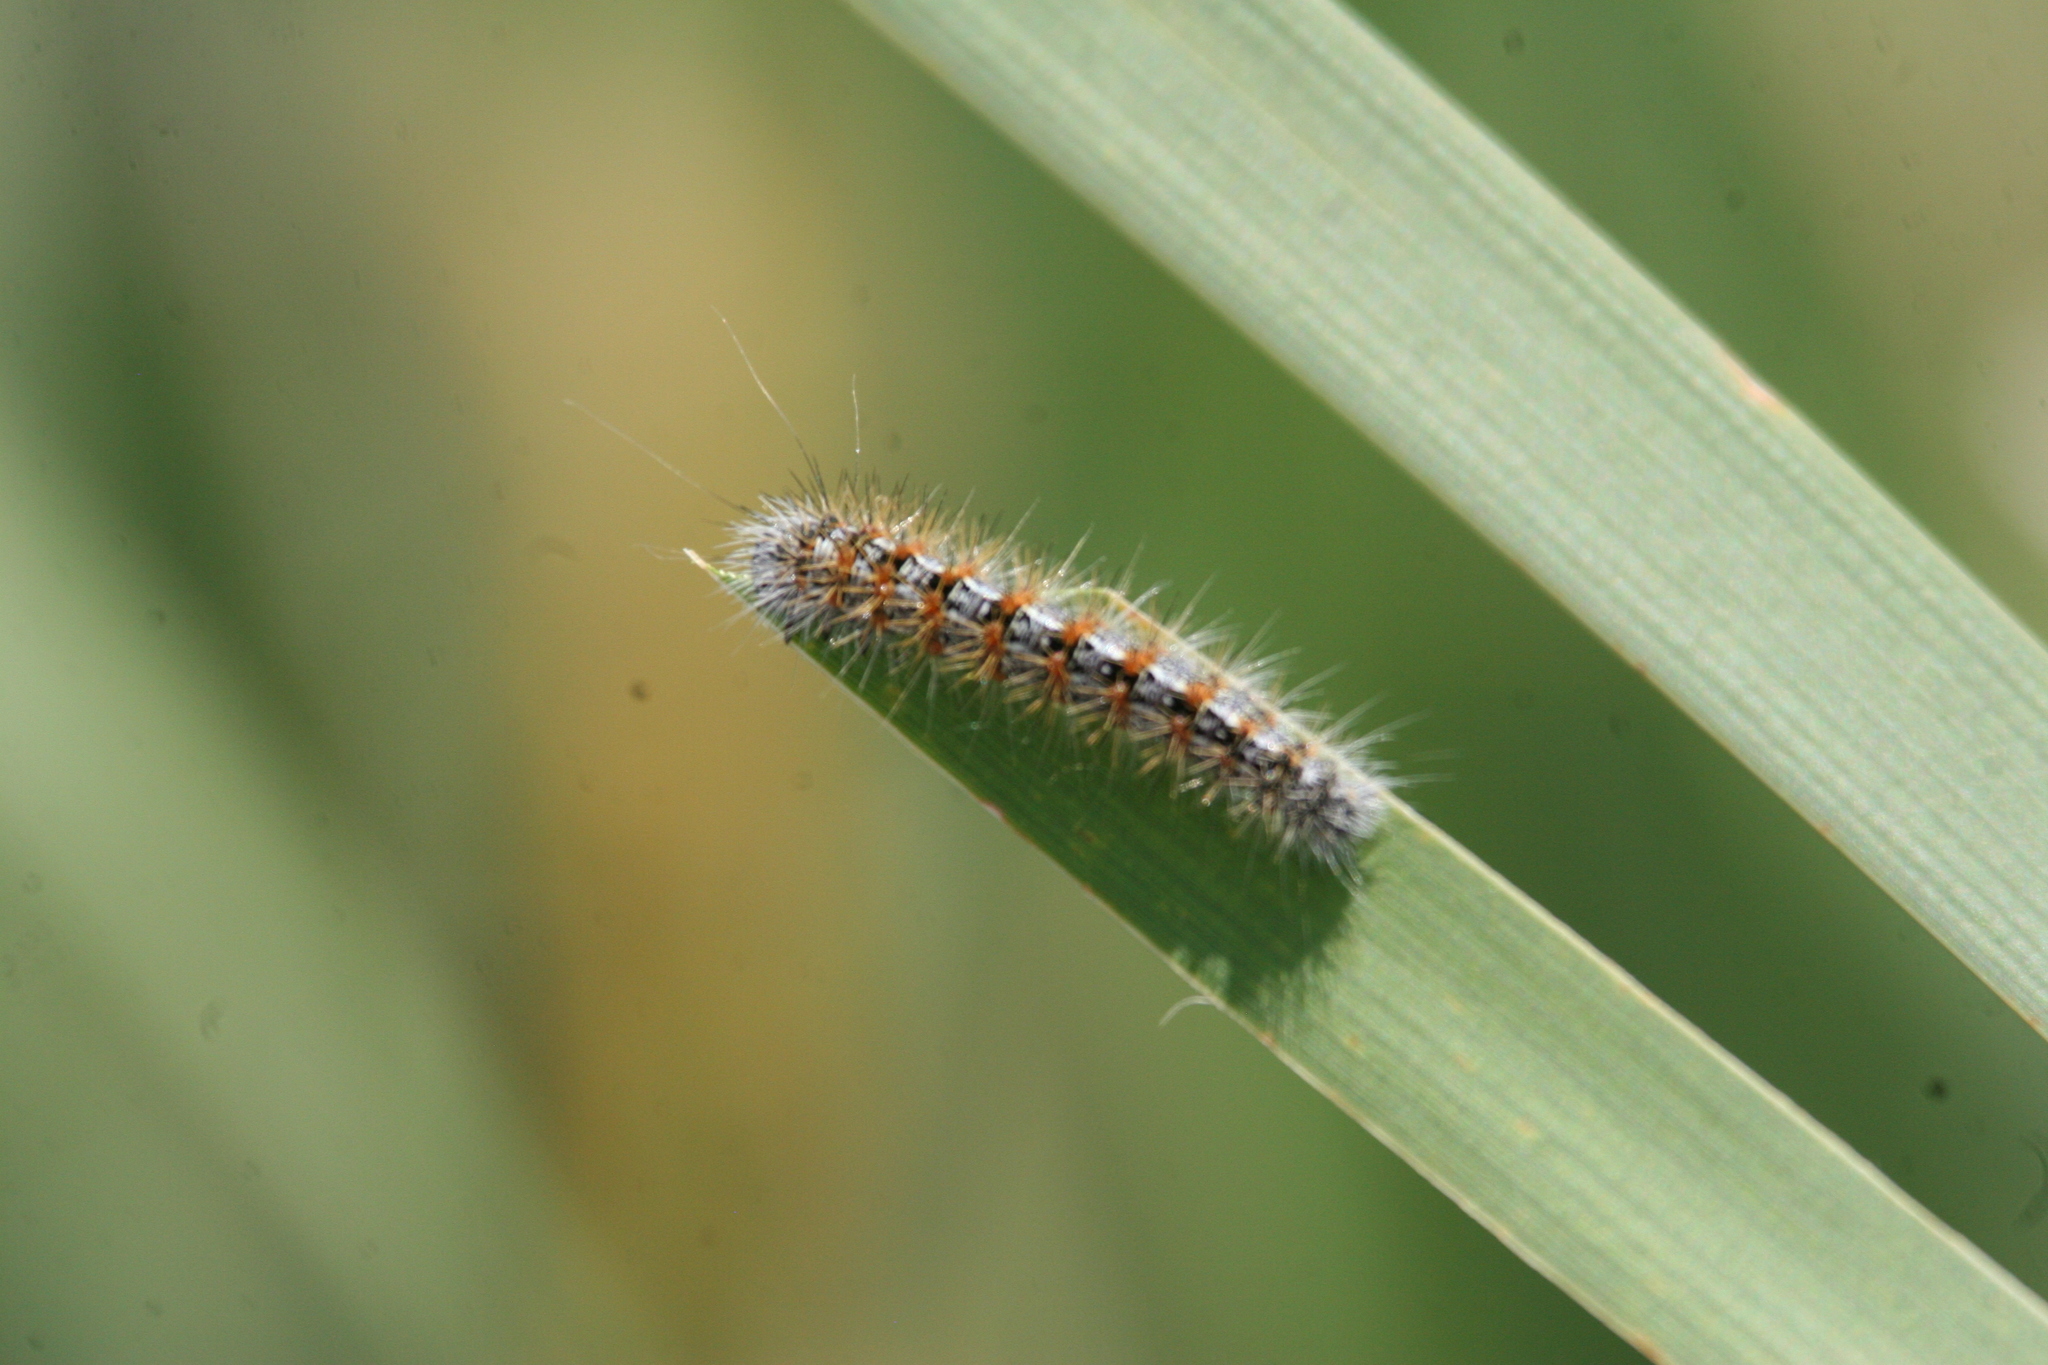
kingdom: Animalia
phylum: Arthropoda
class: Insecta
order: Lepidoptera
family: Noctuidae
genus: Acronicta
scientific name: Acronicta insularis
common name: Henry's marsh moth
